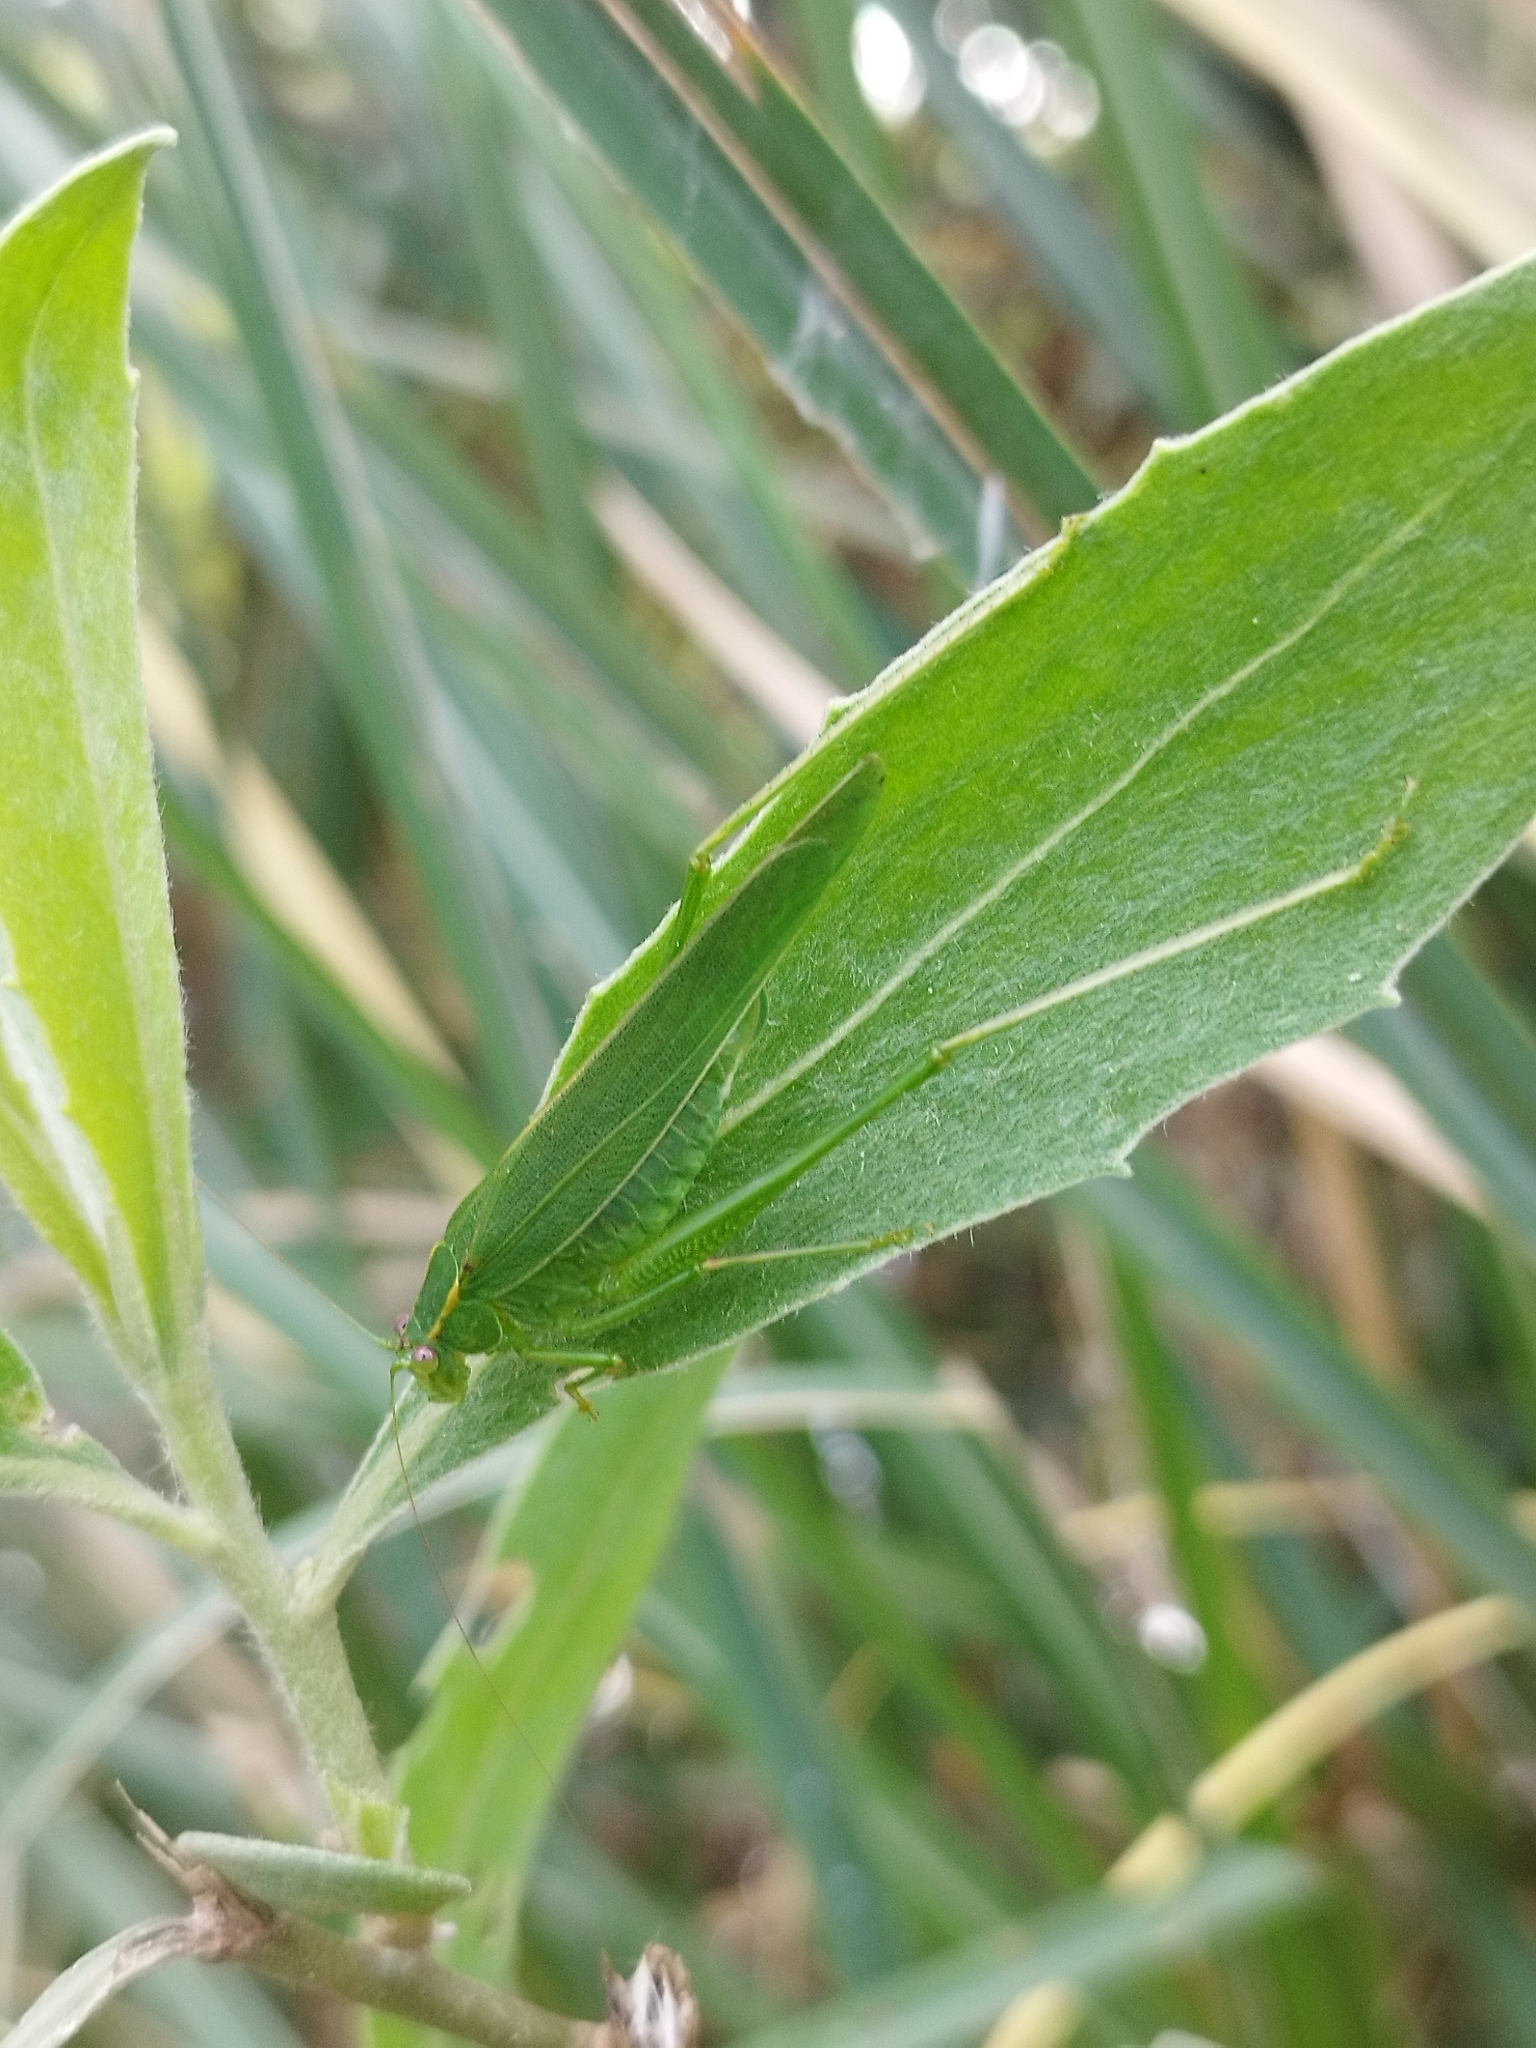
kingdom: Animalia
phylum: Arthropoda
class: Insecta
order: Orthoptera
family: Tettigoniidae
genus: Ligocatinus
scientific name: Ligocatinus spinatus
